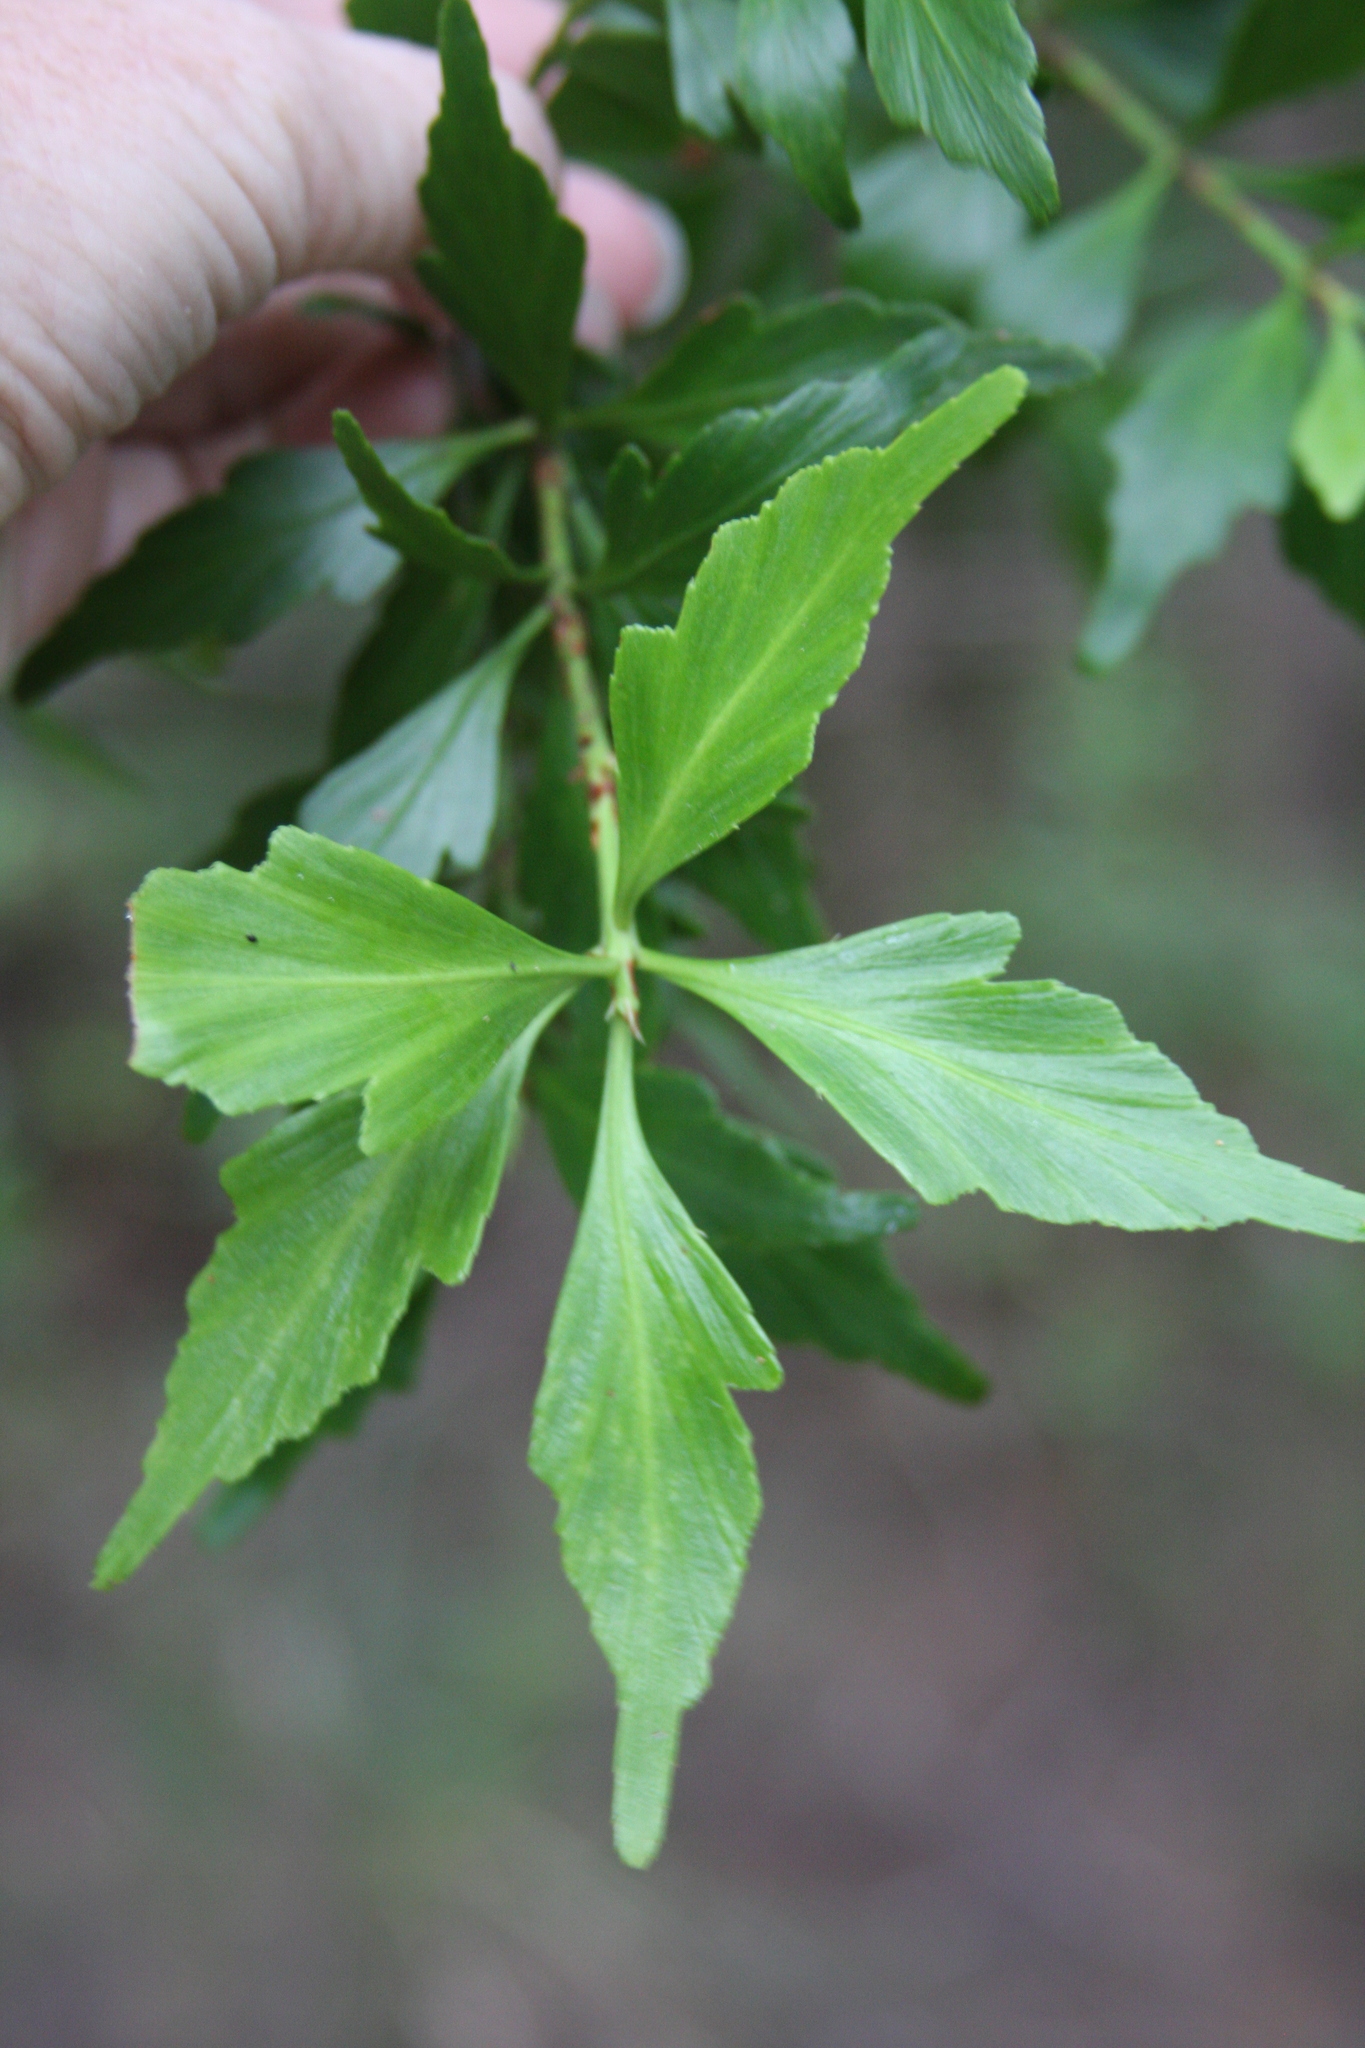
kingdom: Plantae
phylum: Tracheophyta
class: Pinopsida
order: Pinales
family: Phyllocladaceae
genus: Phyllocladus
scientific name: Phyllocladus aspleniifolius
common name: Celery-top pine
